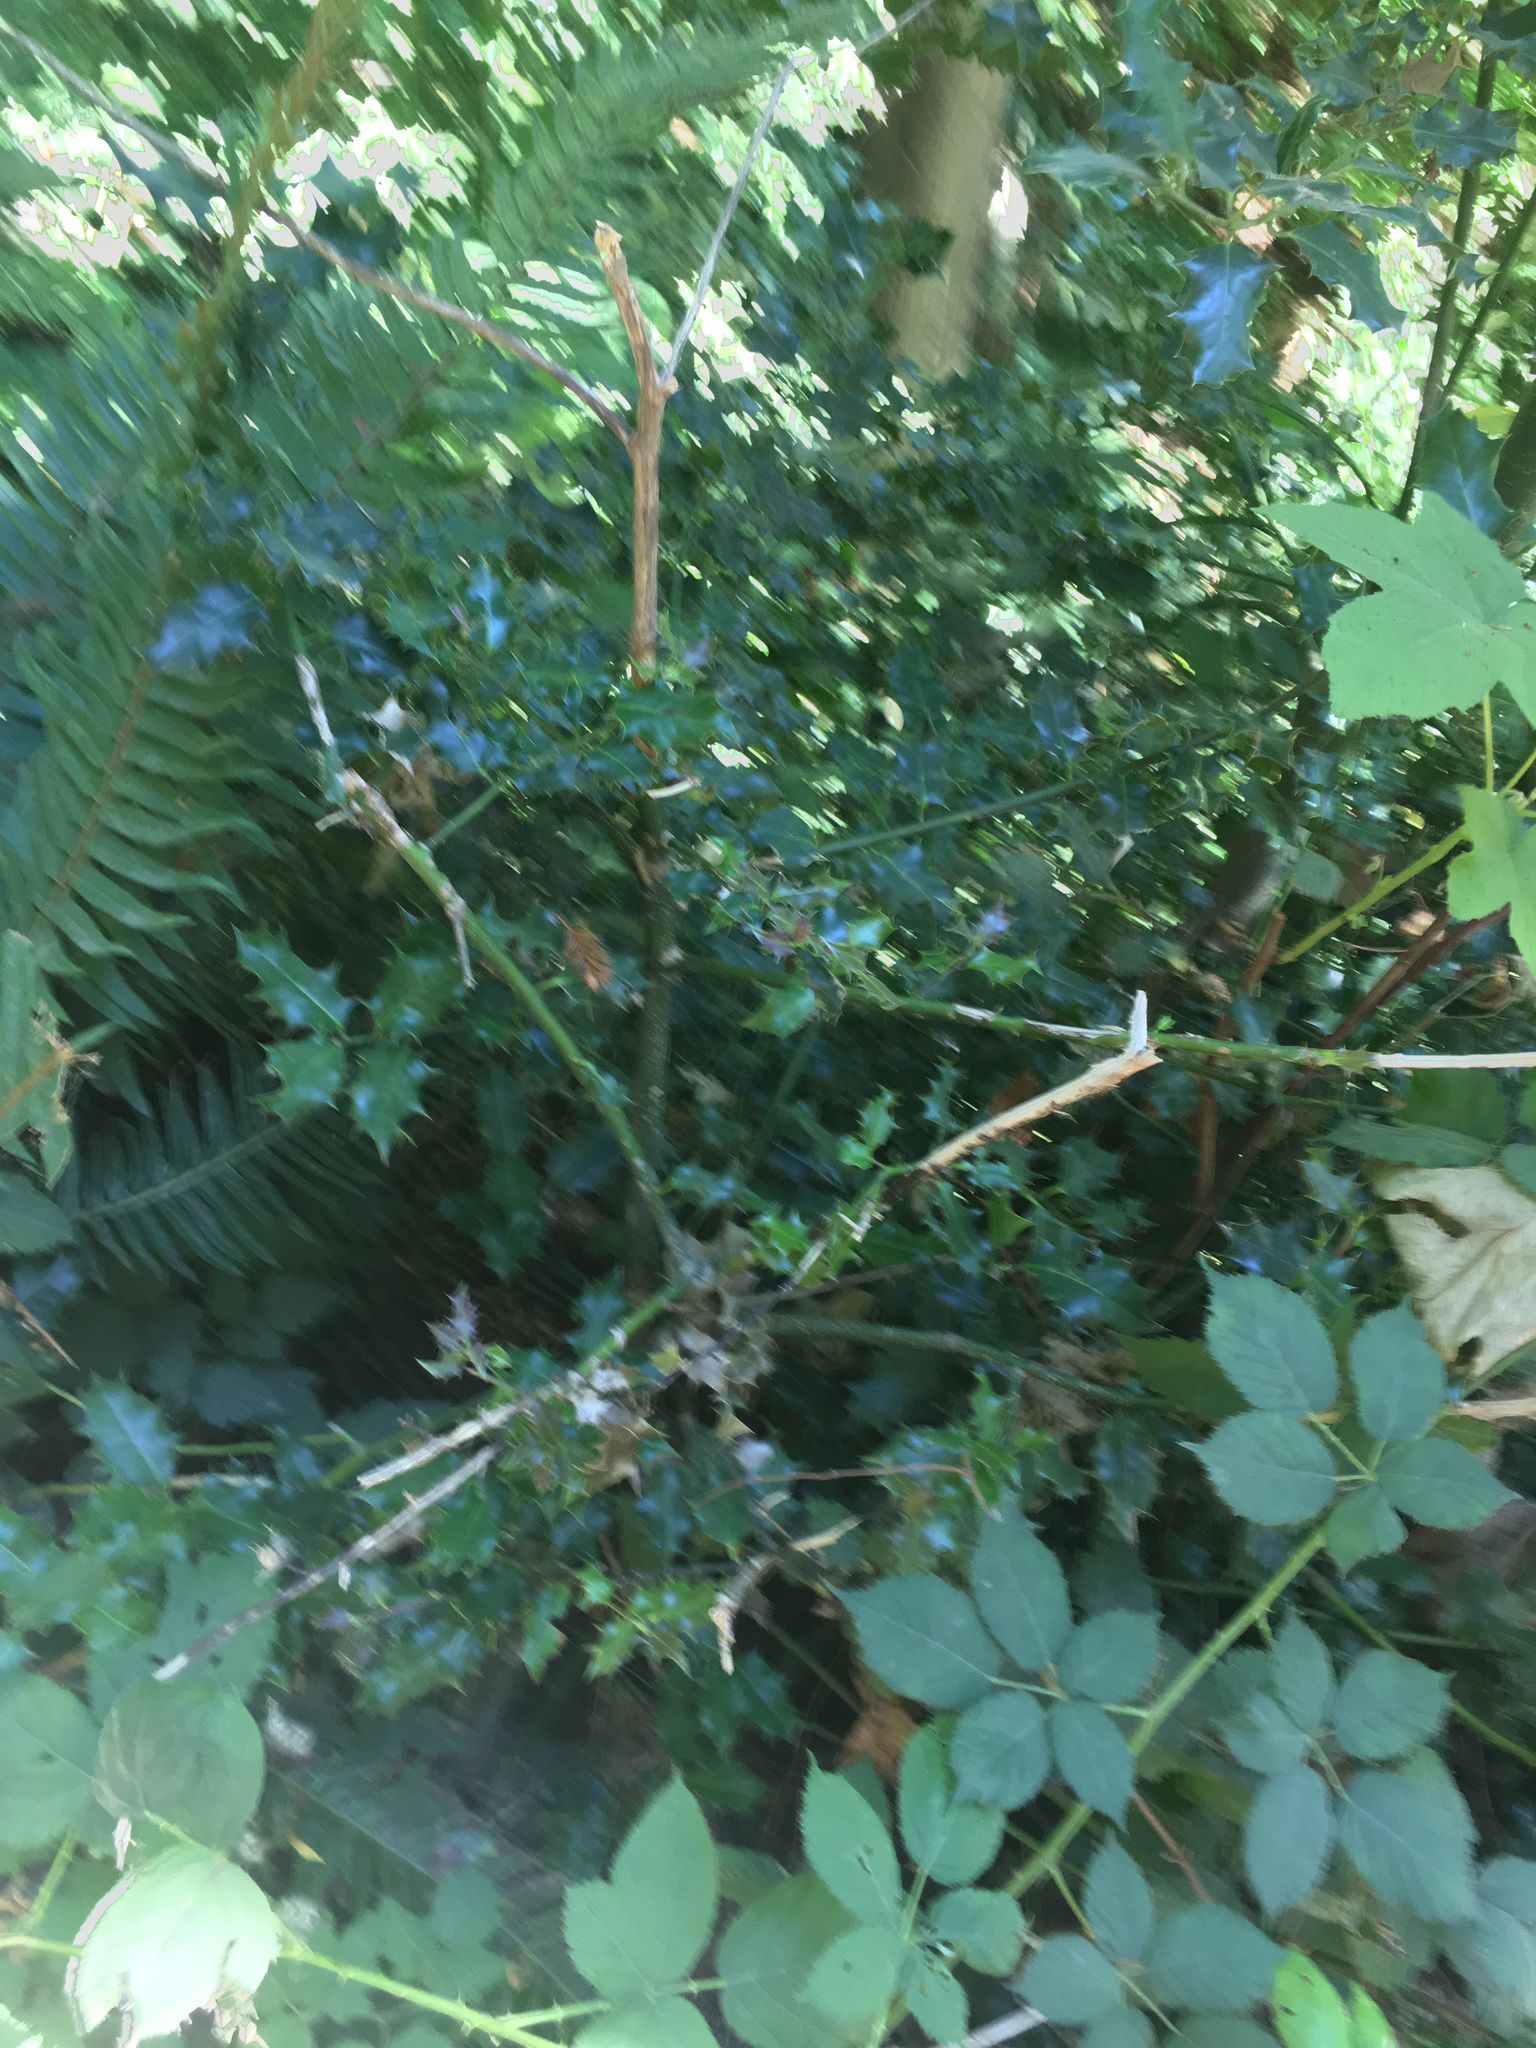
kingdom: Plantae
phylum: Tracheophyta
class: Magnoliopsida
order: Aquifoliales
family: Aquifoliaceae
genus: Ilex
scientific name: Ilex aquifolium
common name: English holly
